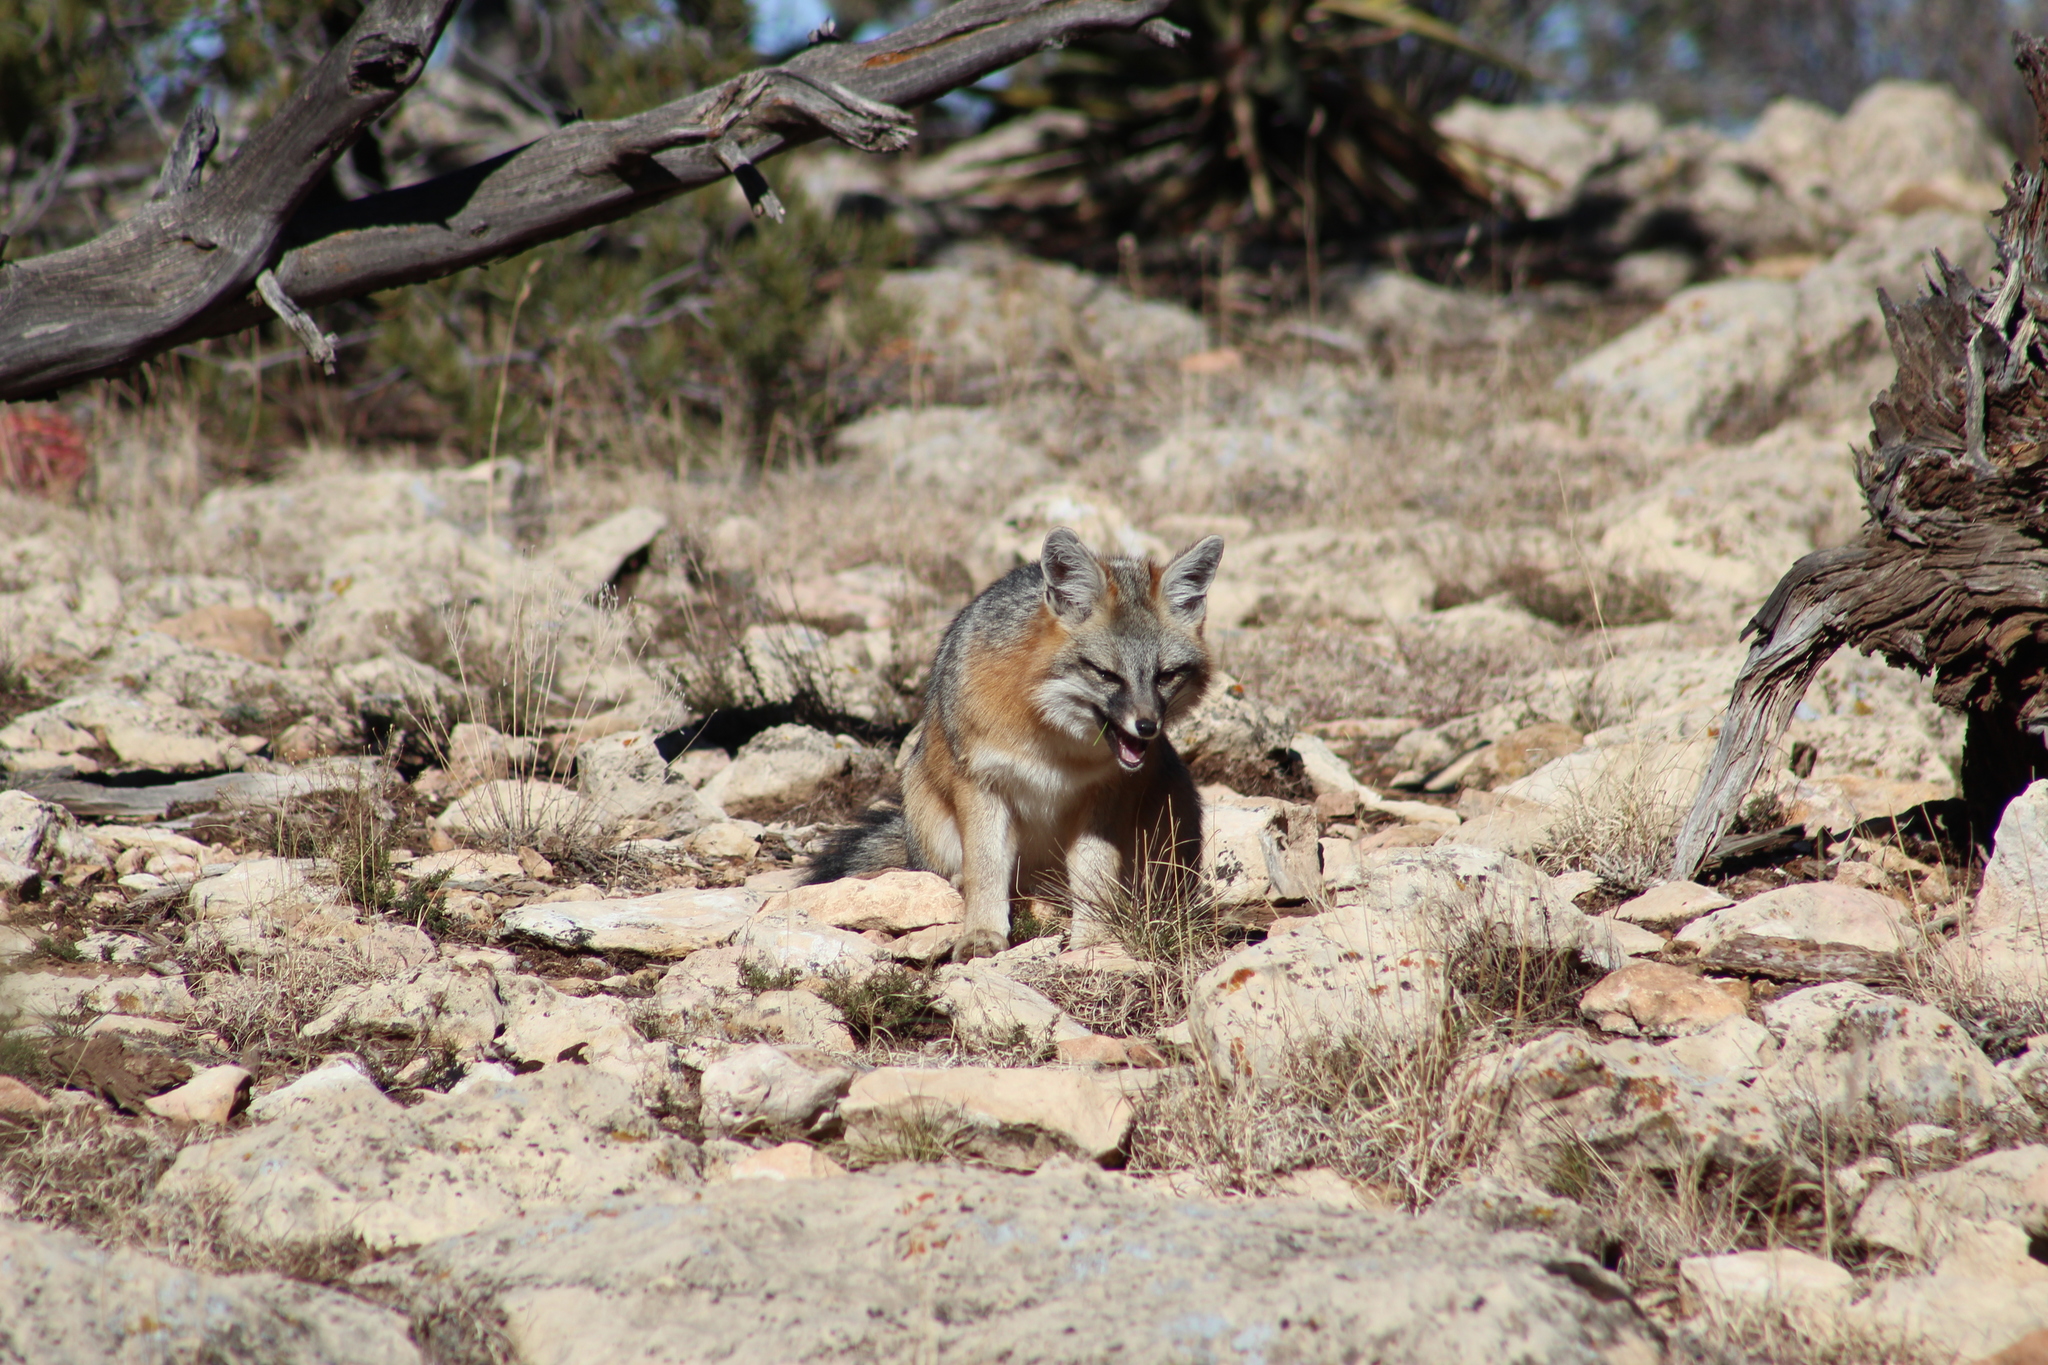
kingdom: Animalia
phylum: Chordata
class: Mammalia
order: Carnivora
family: Canidae
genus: Urocyon
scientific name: Urocyon cinereoargenteus
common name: Gray fox
